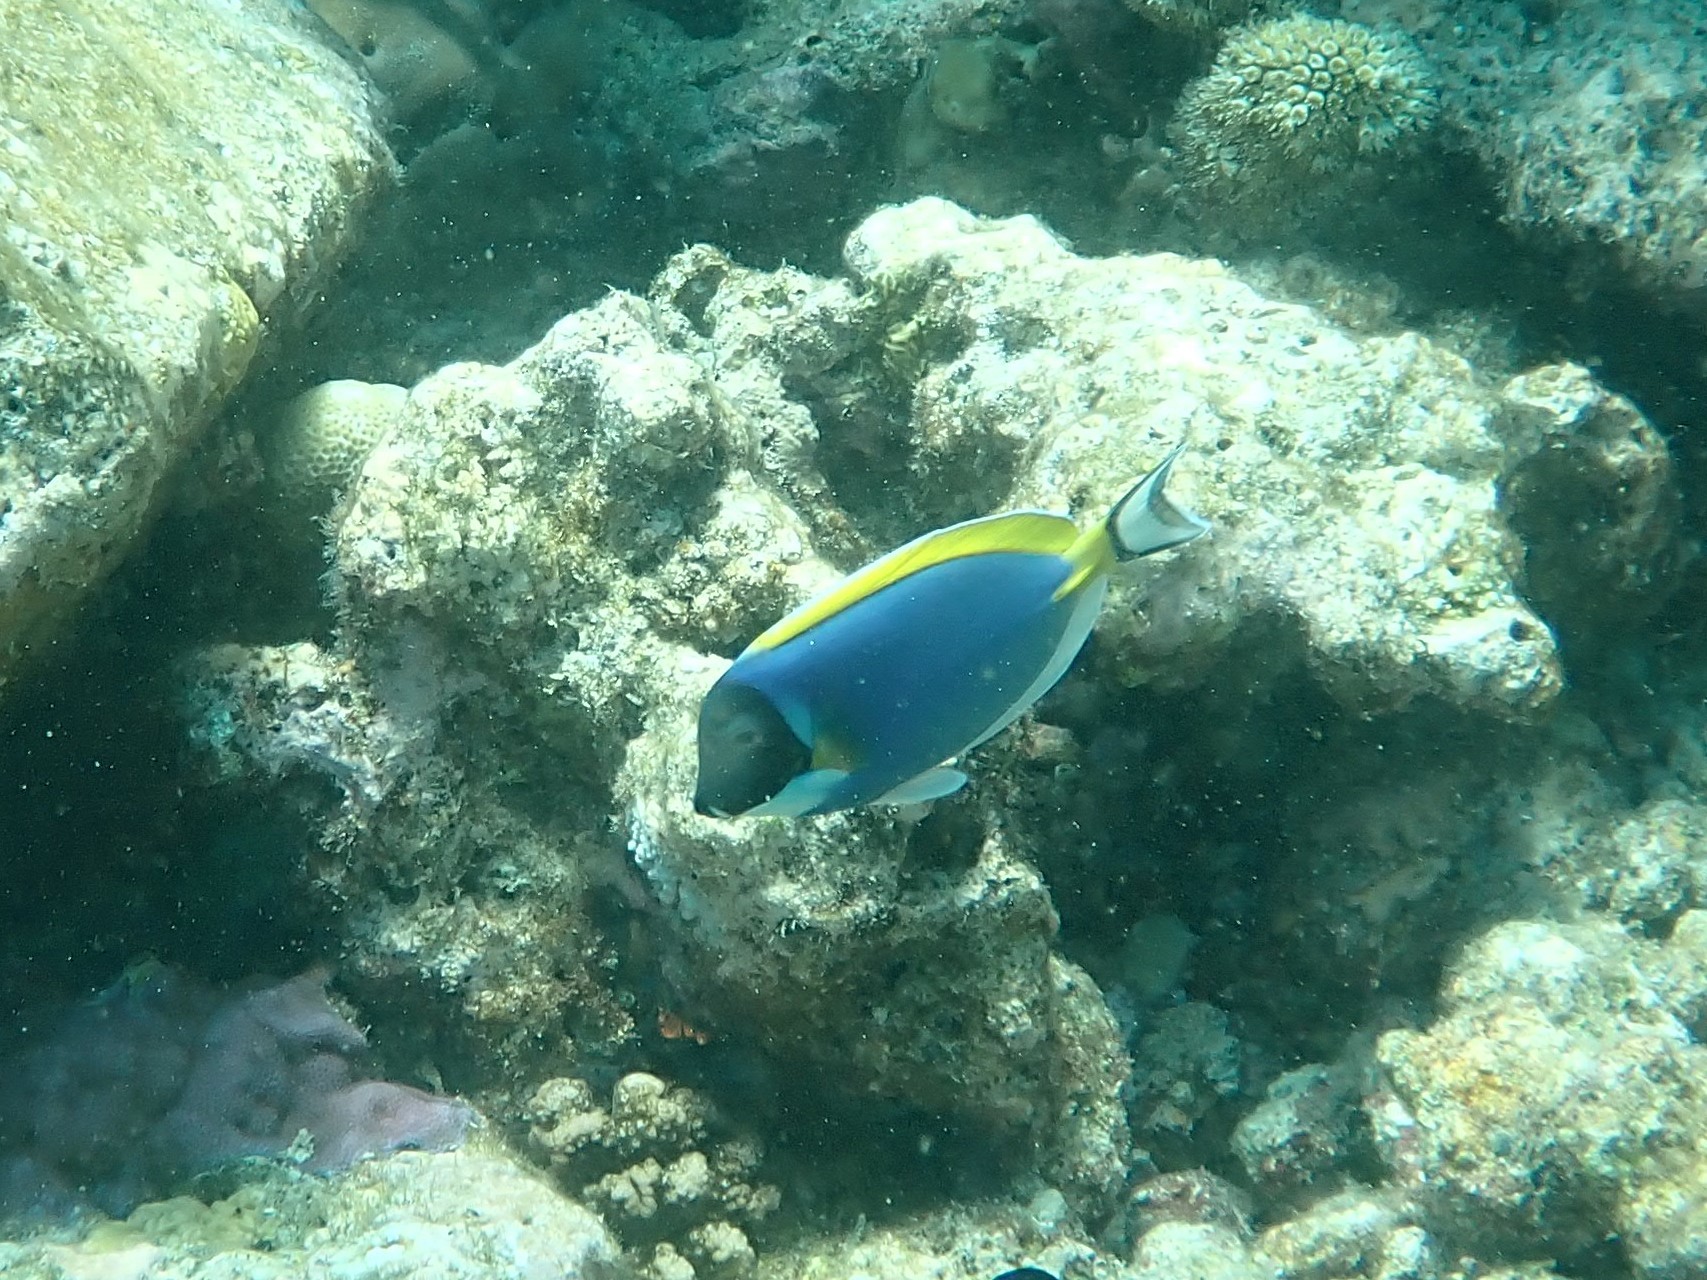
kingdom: Animalia
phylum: Chordata
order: Perciformes
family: Acanthuridae
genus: Acanthurus
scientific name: Acanthurus leucosternon
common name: Blue surgeonfish
